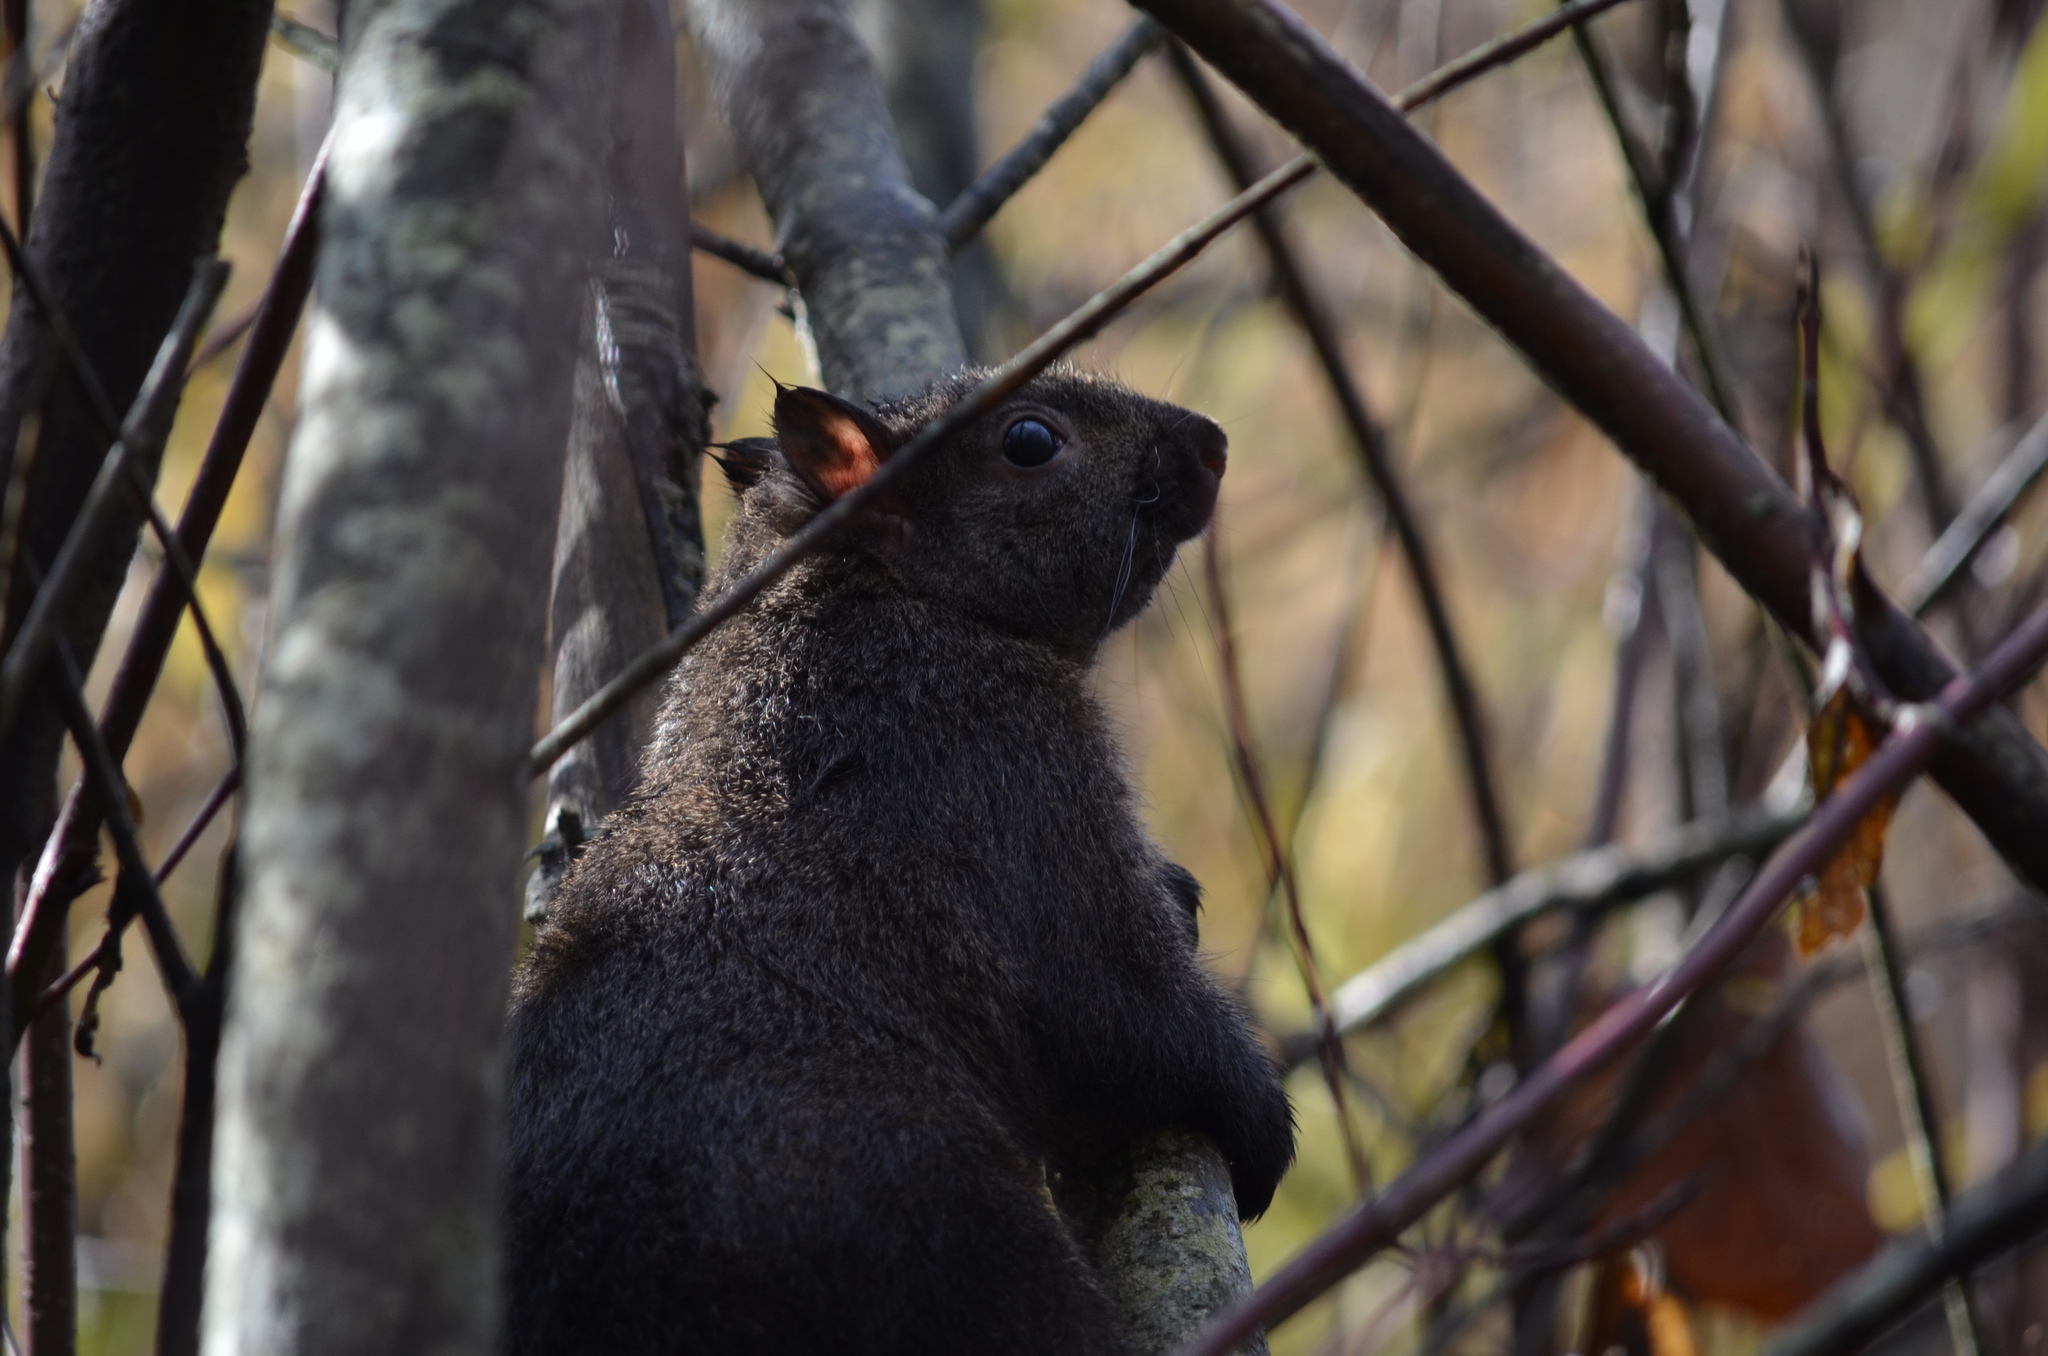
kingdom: Animalia
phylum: Chordata
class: Mammalia
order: Rodentia
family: Sciuridae
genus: Sciurus
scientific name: Sciurus carolinensis
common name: Eastern gray squirrel
